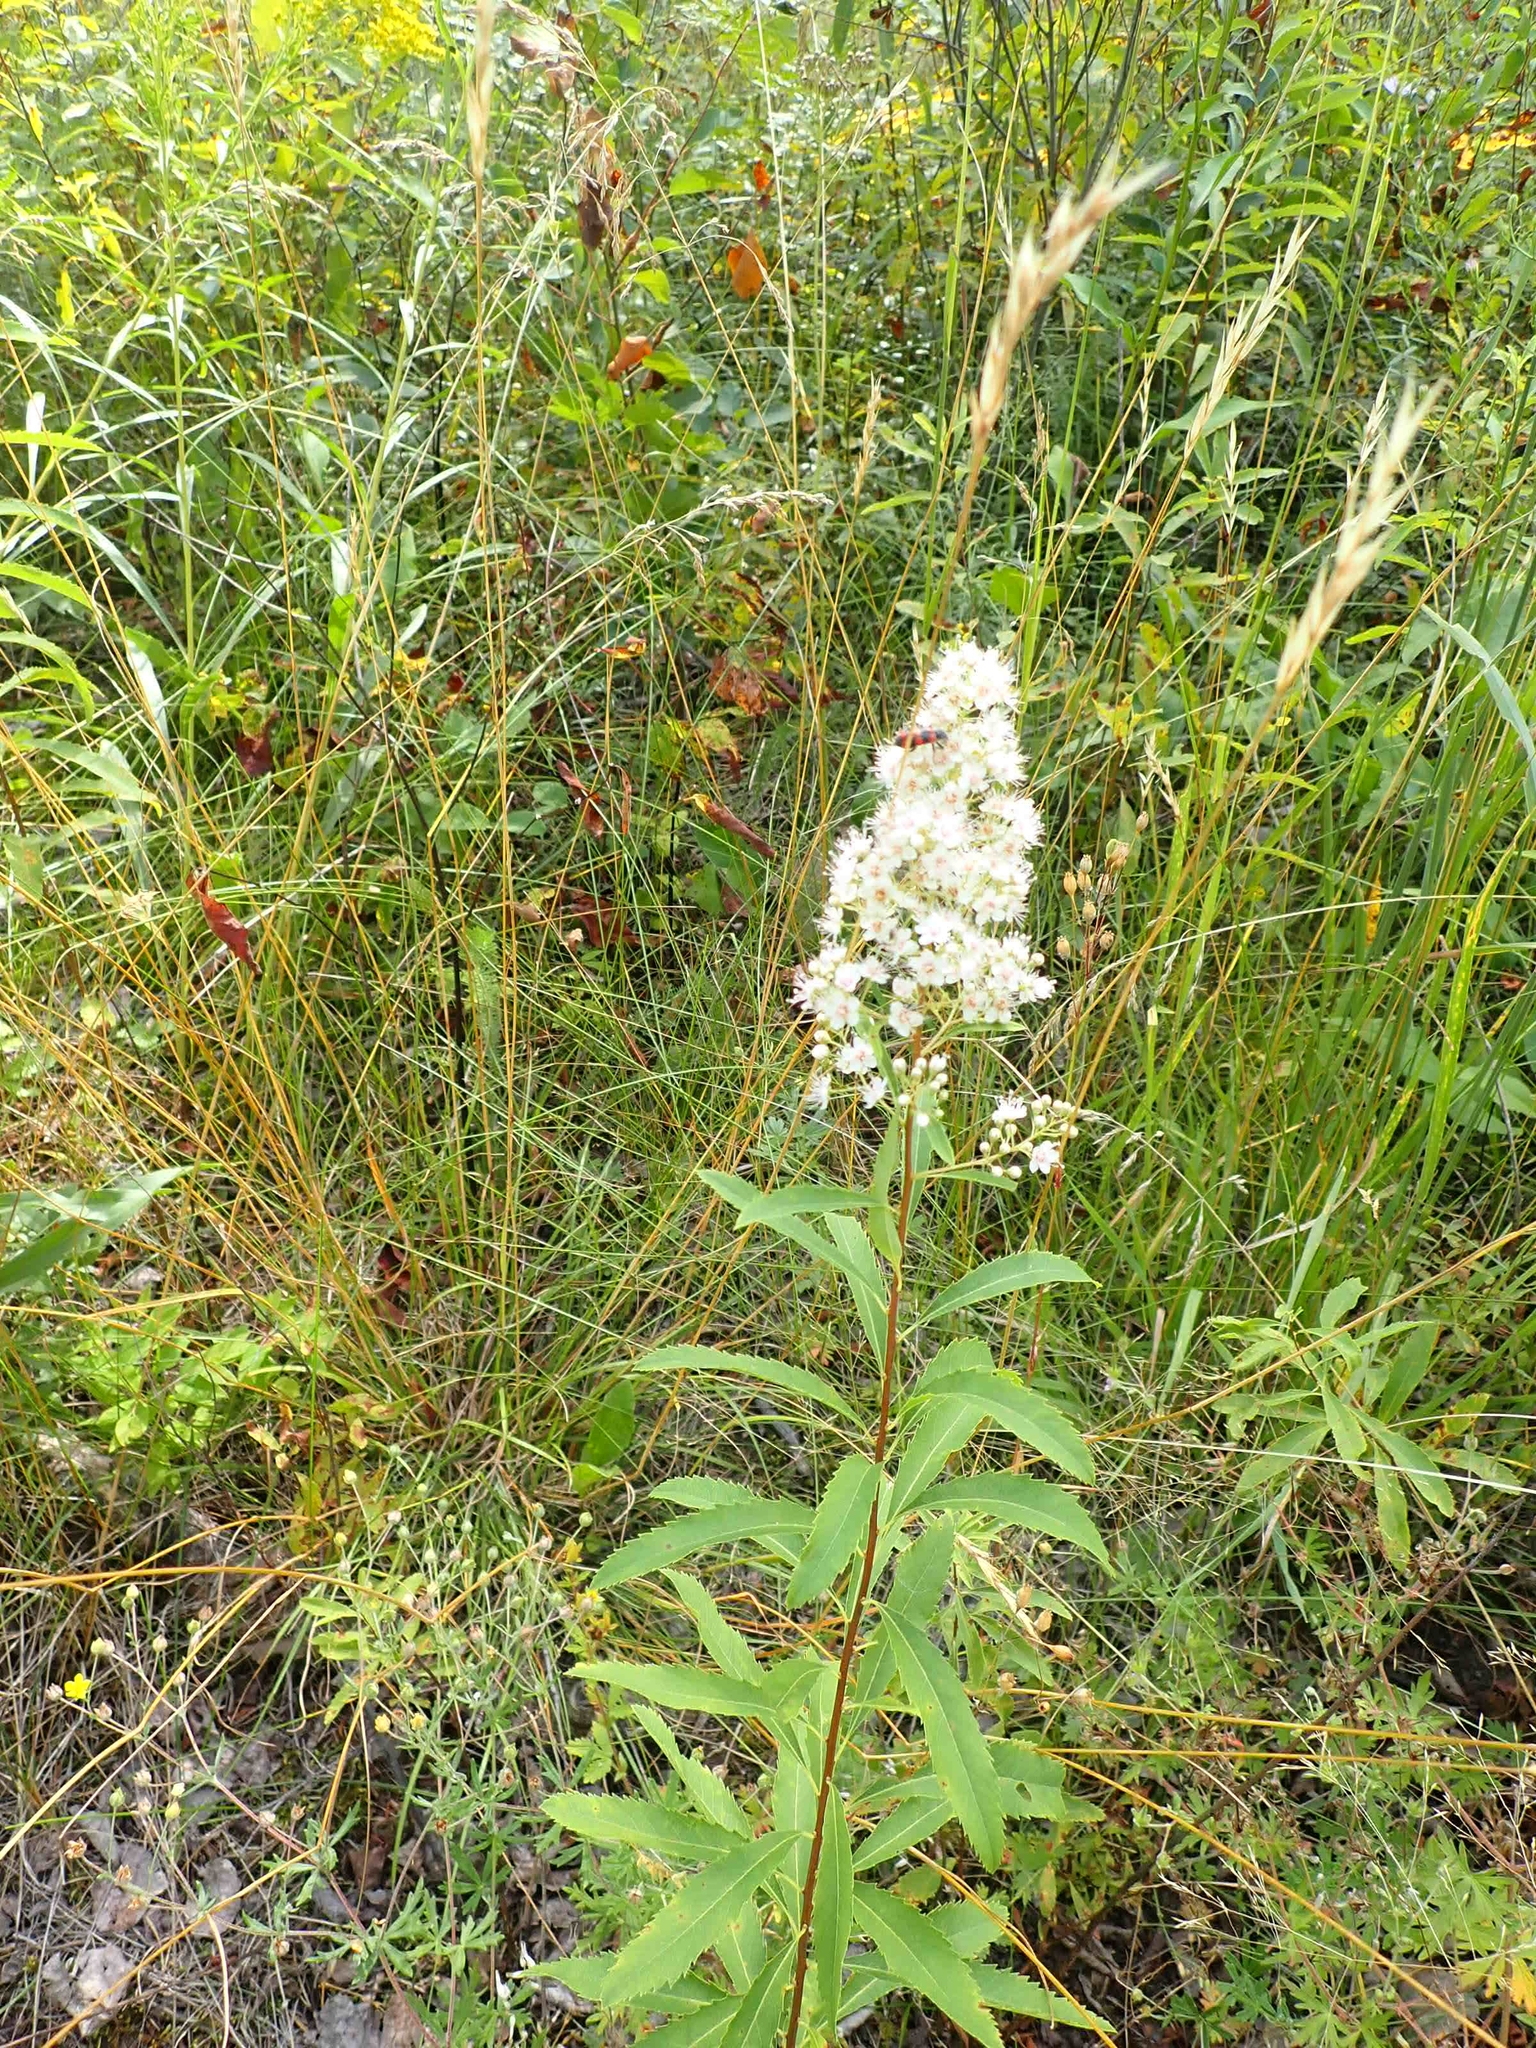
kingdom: Plantae
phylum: Tracheophyta
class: Magnoliopsida
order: Rosales
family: Rosaceae
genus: Spiraea
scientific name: Spiraea alba
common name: Pale bridewort
